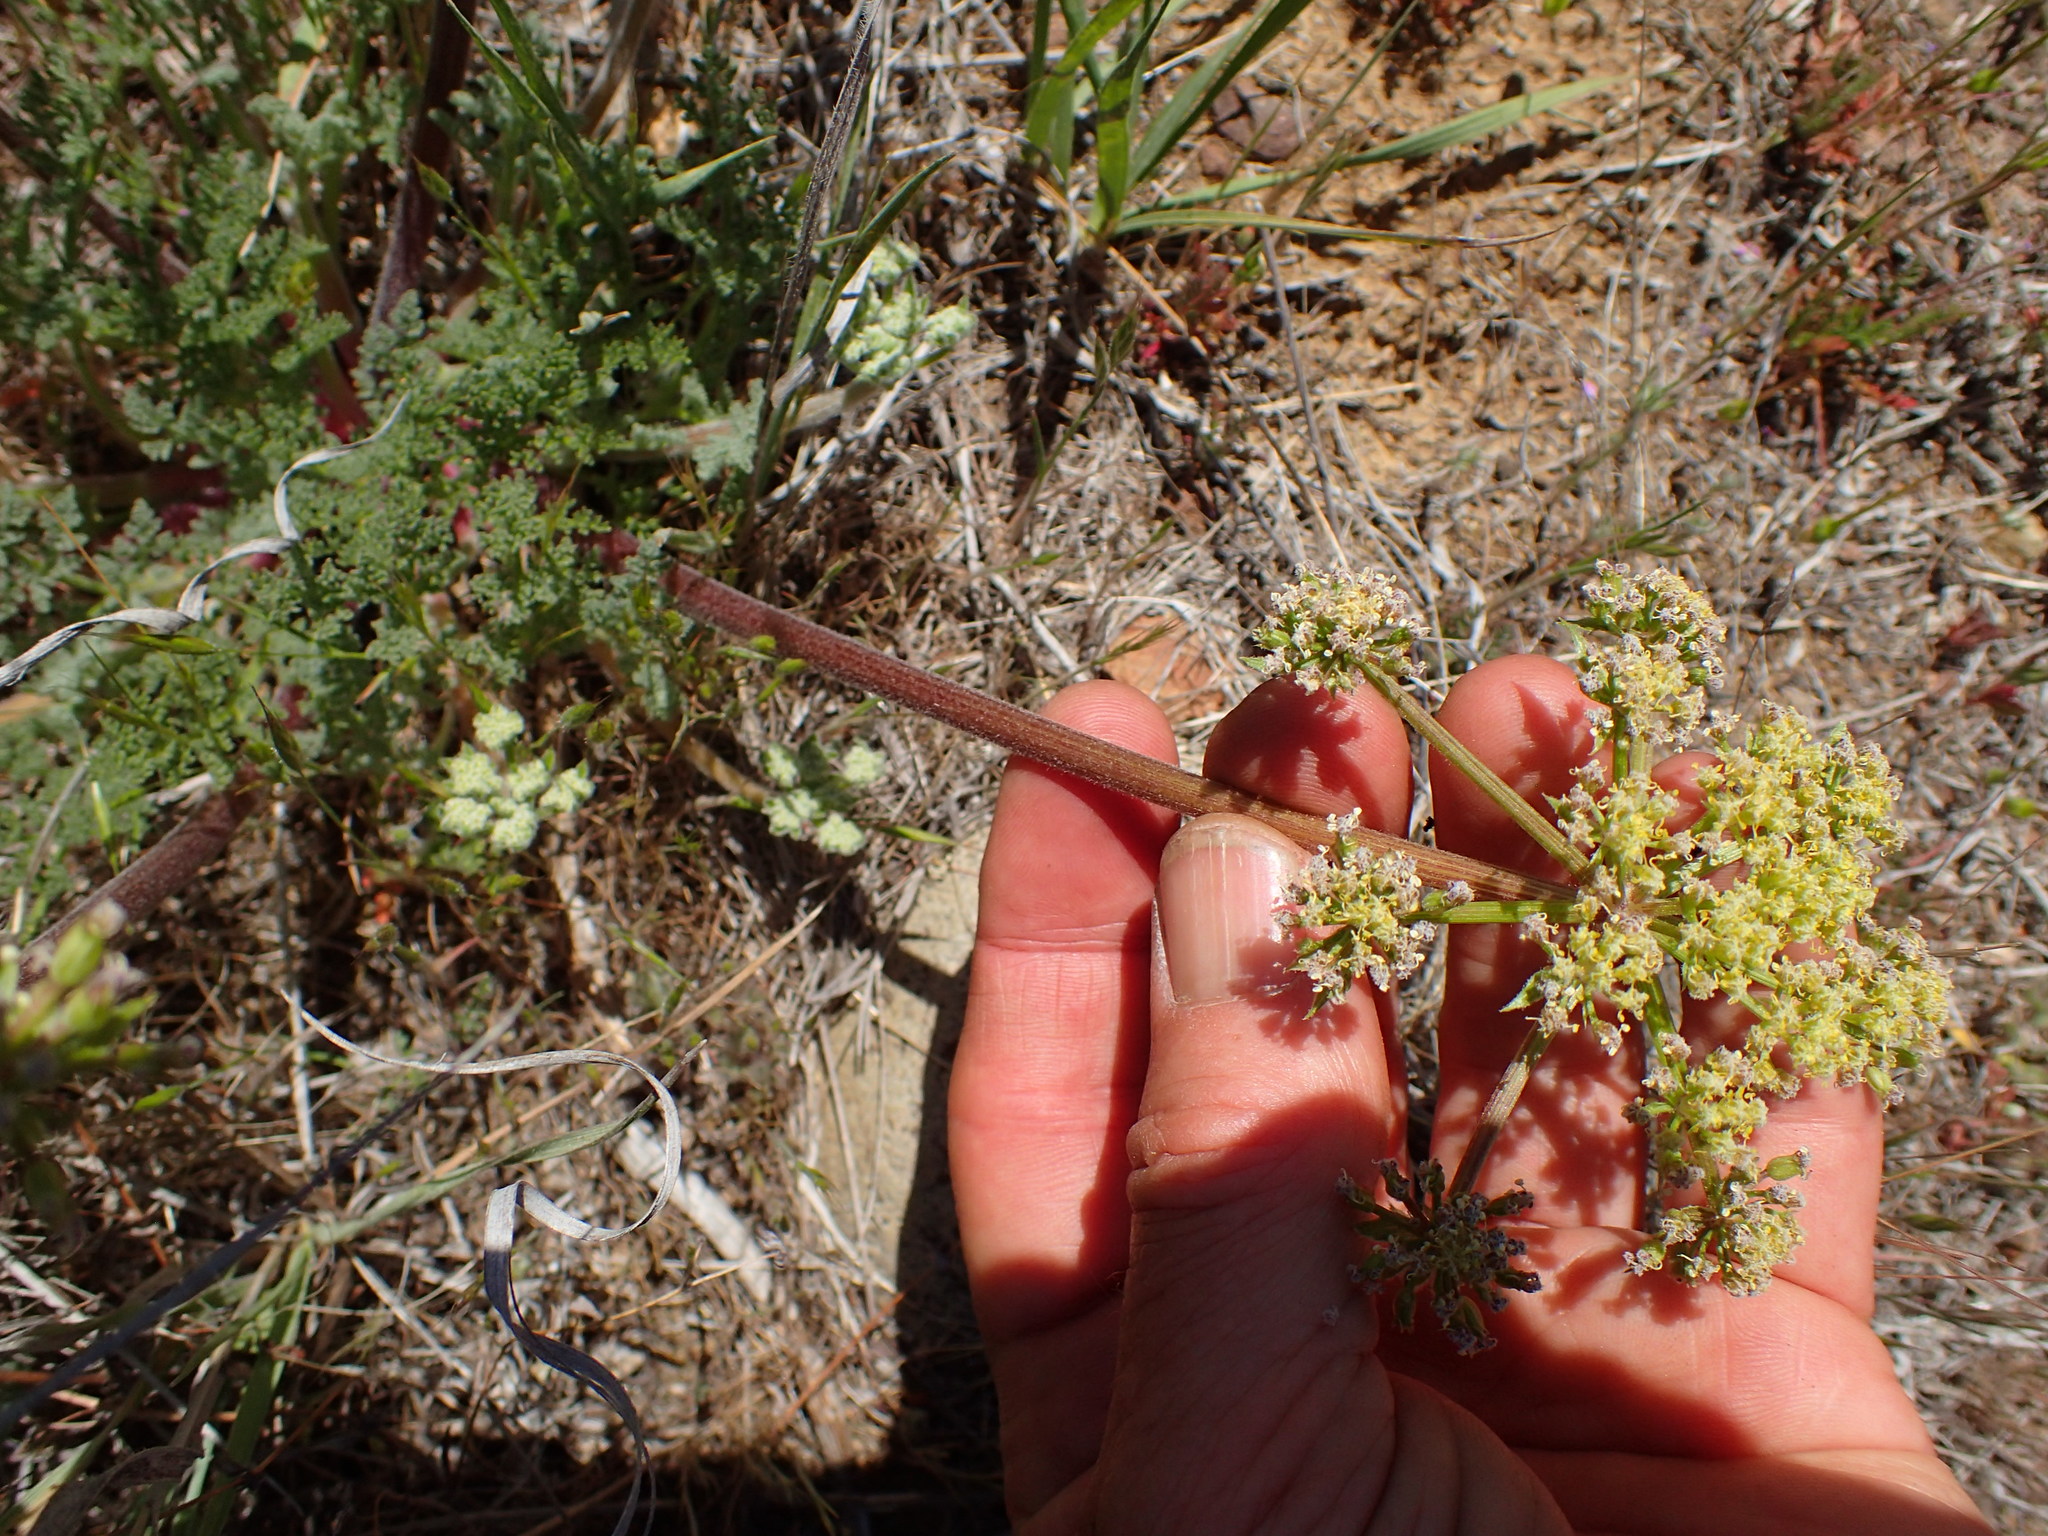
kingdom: Plantae
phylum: Tracheophyta
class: Magnoliopsida
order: Apiales
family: Apiaceae
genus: Lomatium
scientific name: Lomatium dasycarpum
